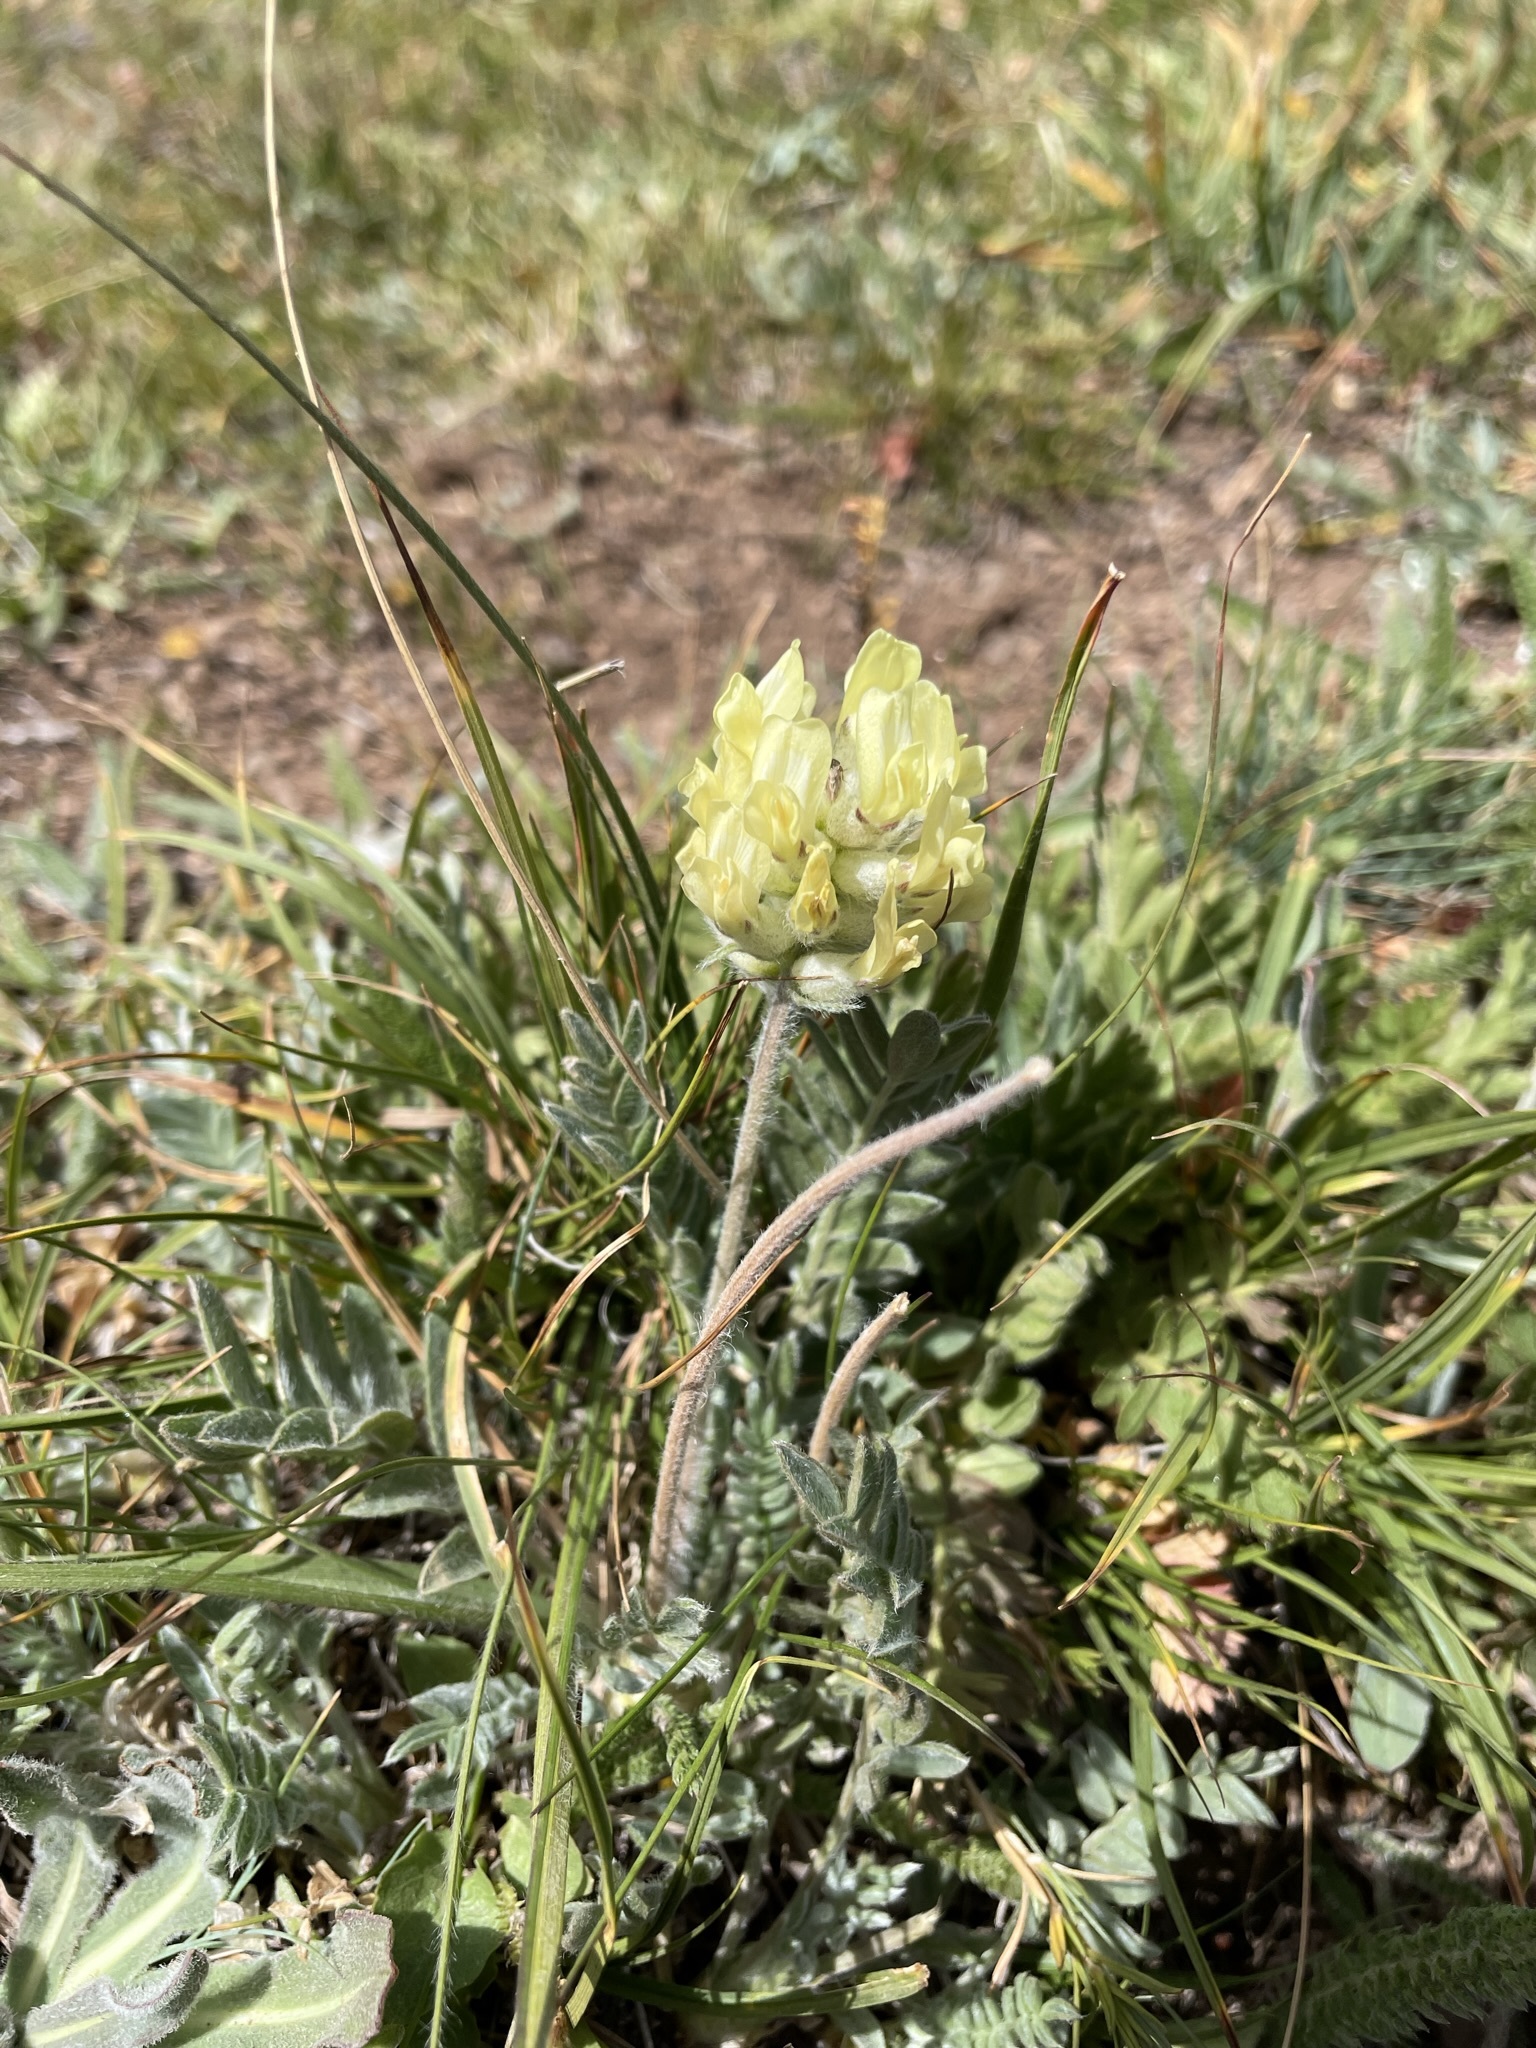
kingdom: Plantae
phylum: Tracheophyta
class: Magnoliopsida
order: Fabales
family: Fabaceae
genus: Oxytropis
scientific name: Oxytropis campestris
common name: Field locoweed
